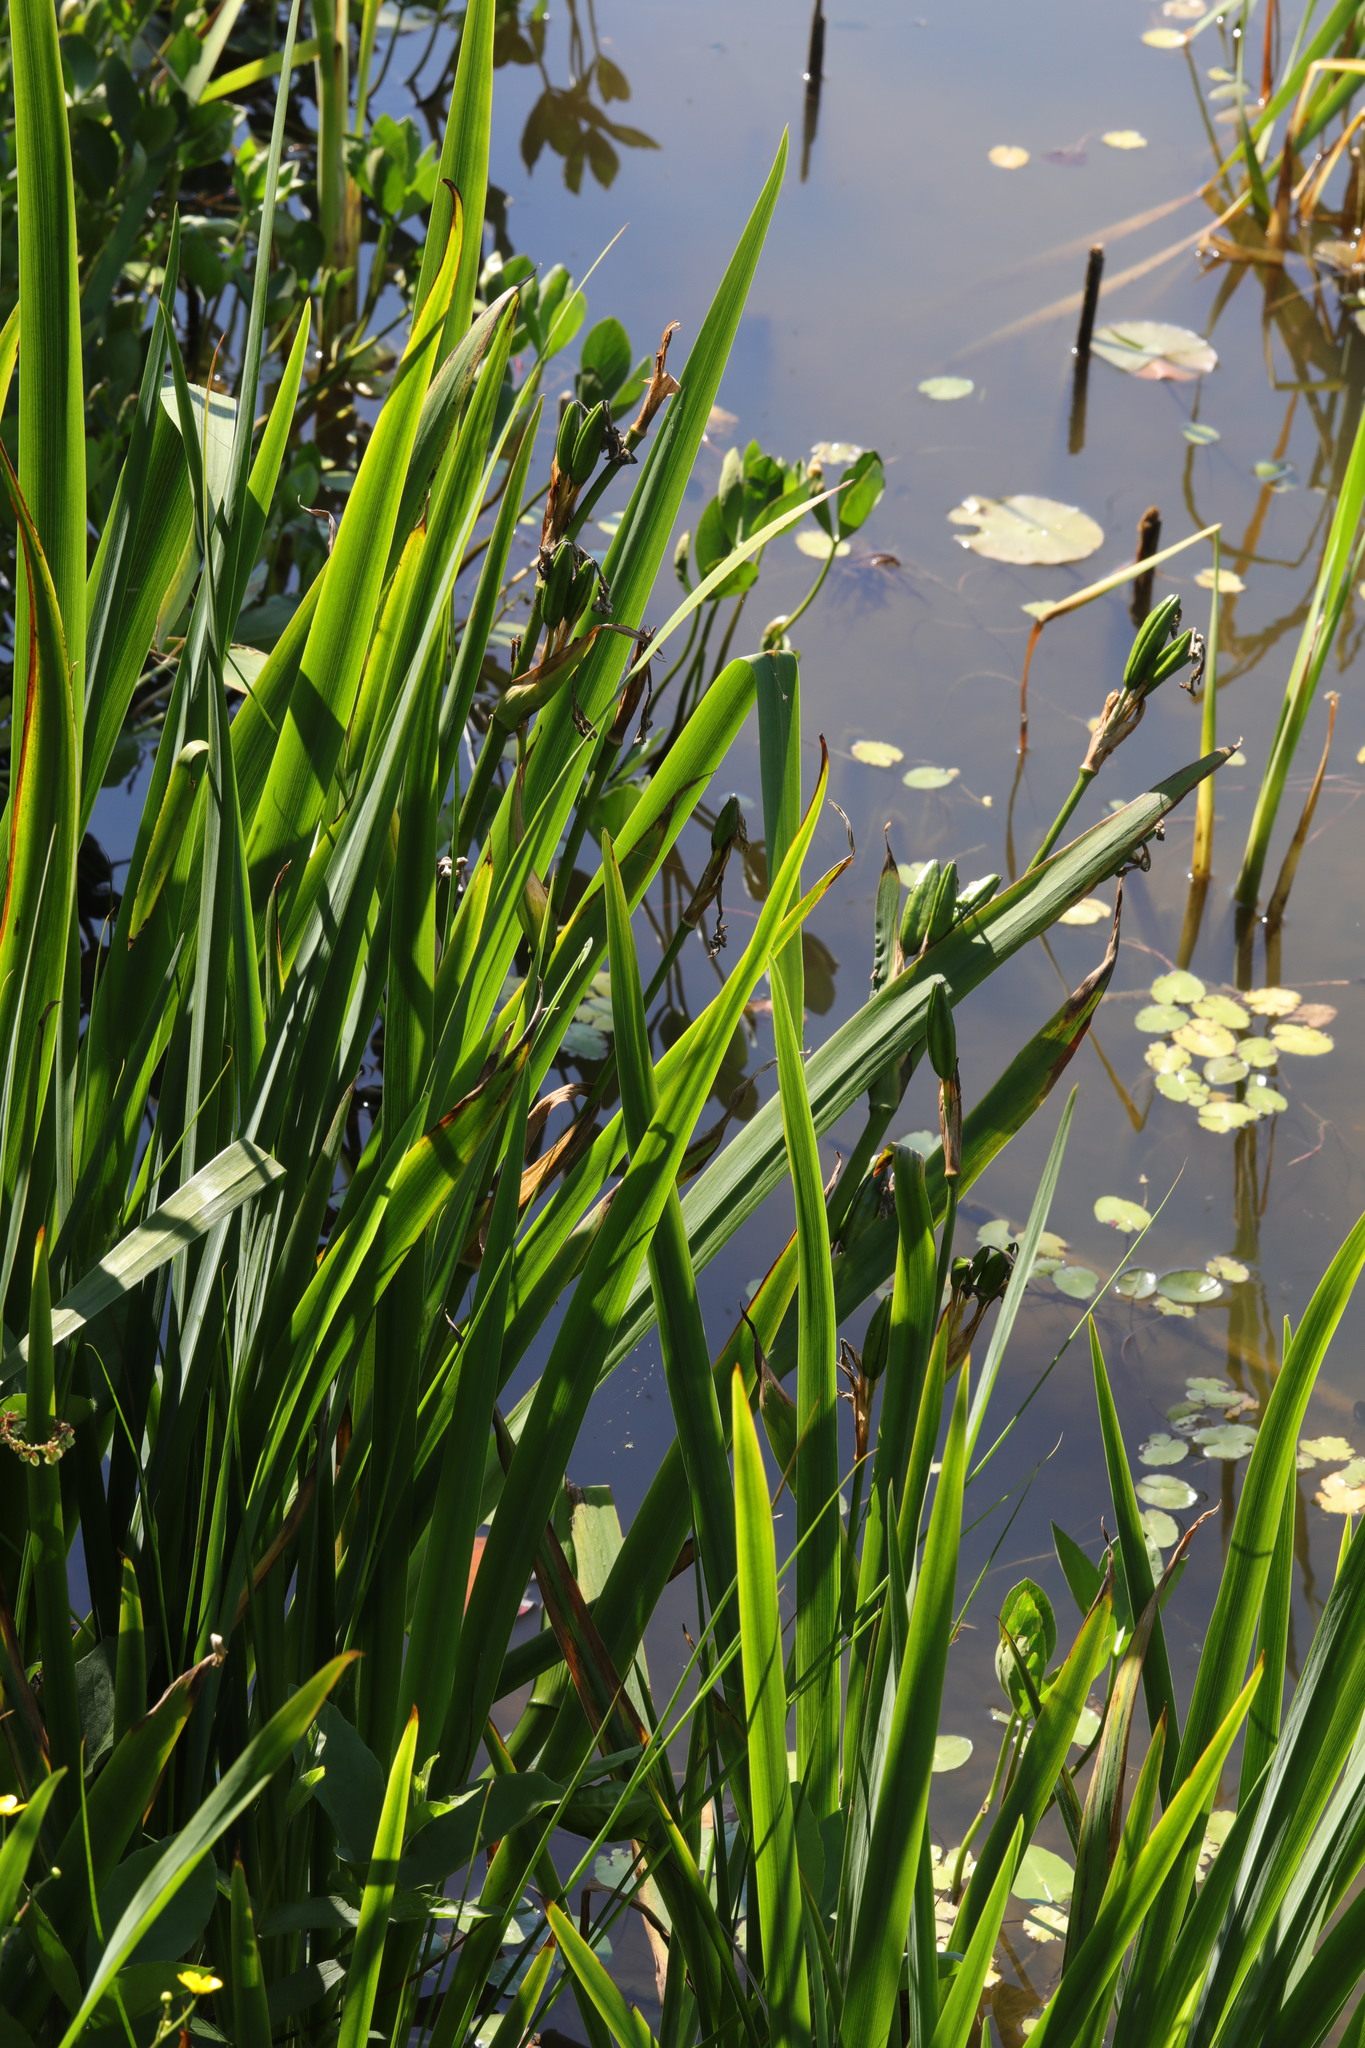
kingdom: Plantae
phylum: Tracheophyta
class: Liliopsida
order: Asparagales
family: Iridaceae
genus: Iris
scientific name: Iris pseudacorus
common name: Yellow flag
